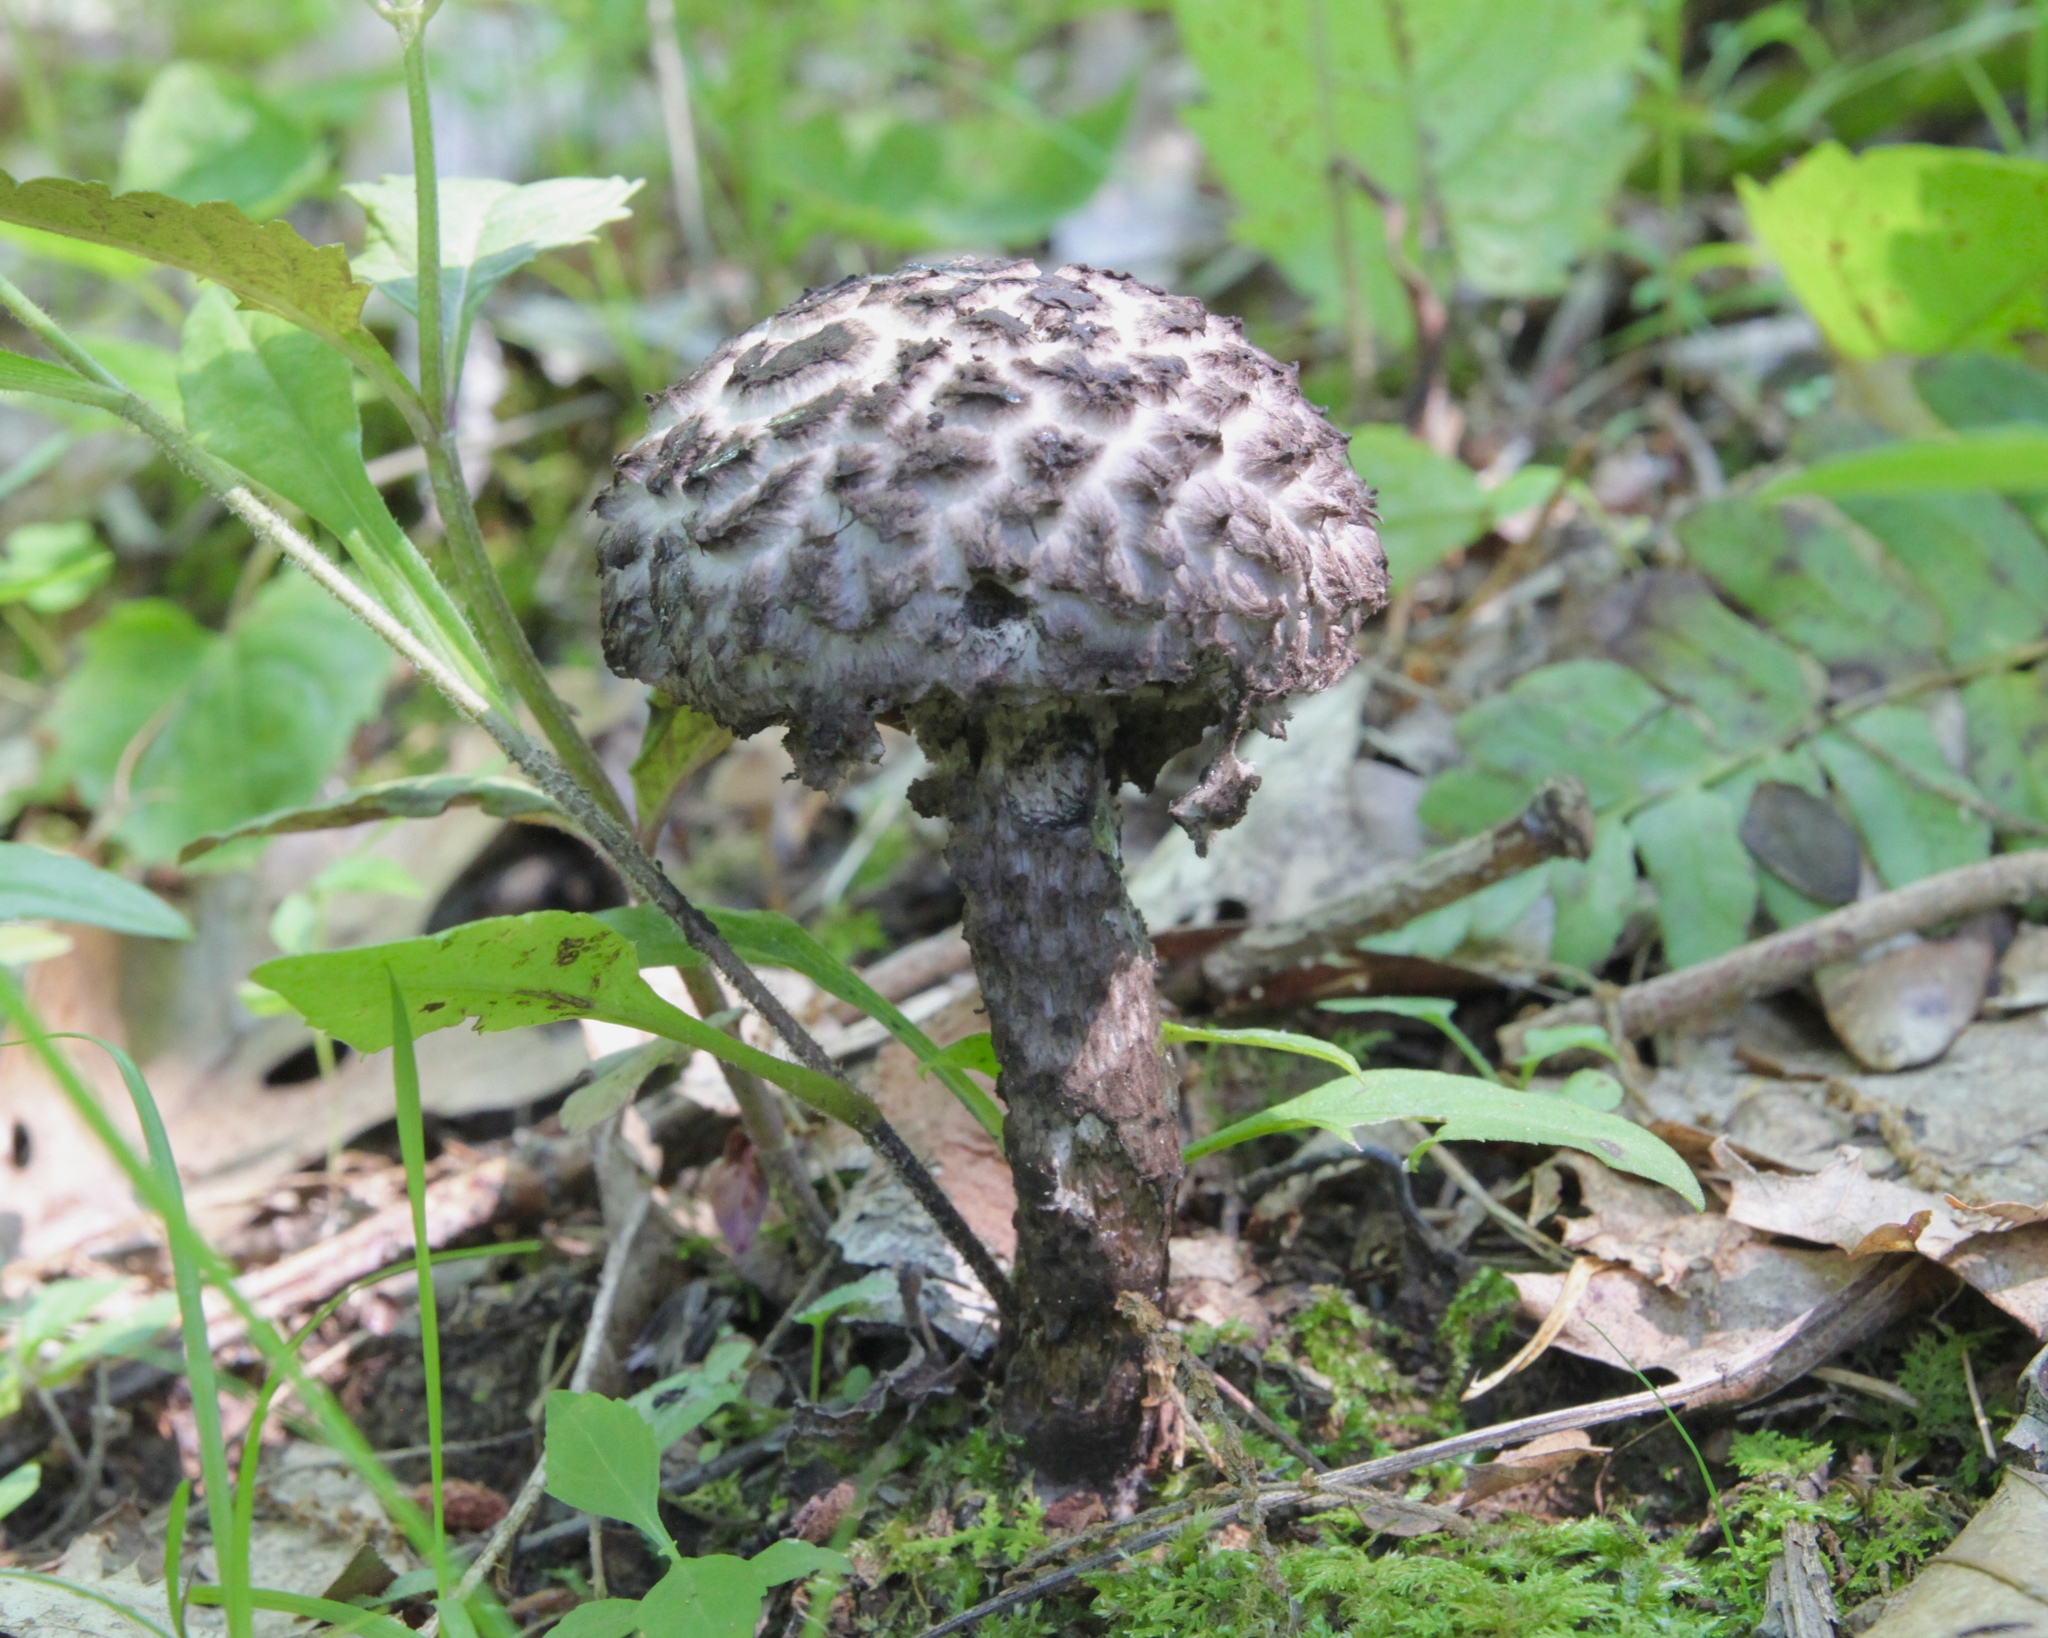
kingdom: Fungi
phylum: Basidiomycota
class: Agaricomycetes
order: Boletales
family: Boletaceae
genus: Strobilomyces
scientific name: Strobilomyces strobilaceus
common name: Old man of the woods
